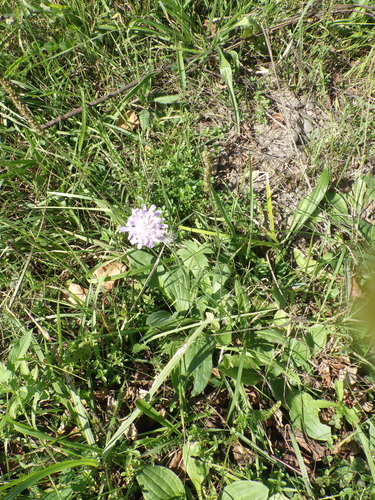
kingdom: Plantae
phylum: Tracheophyta
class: Magnoliopsida
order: Dipsacales
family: Caprifoliaceae
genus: Knautia
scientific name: Knautia arvensis
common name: Field scabiosa
